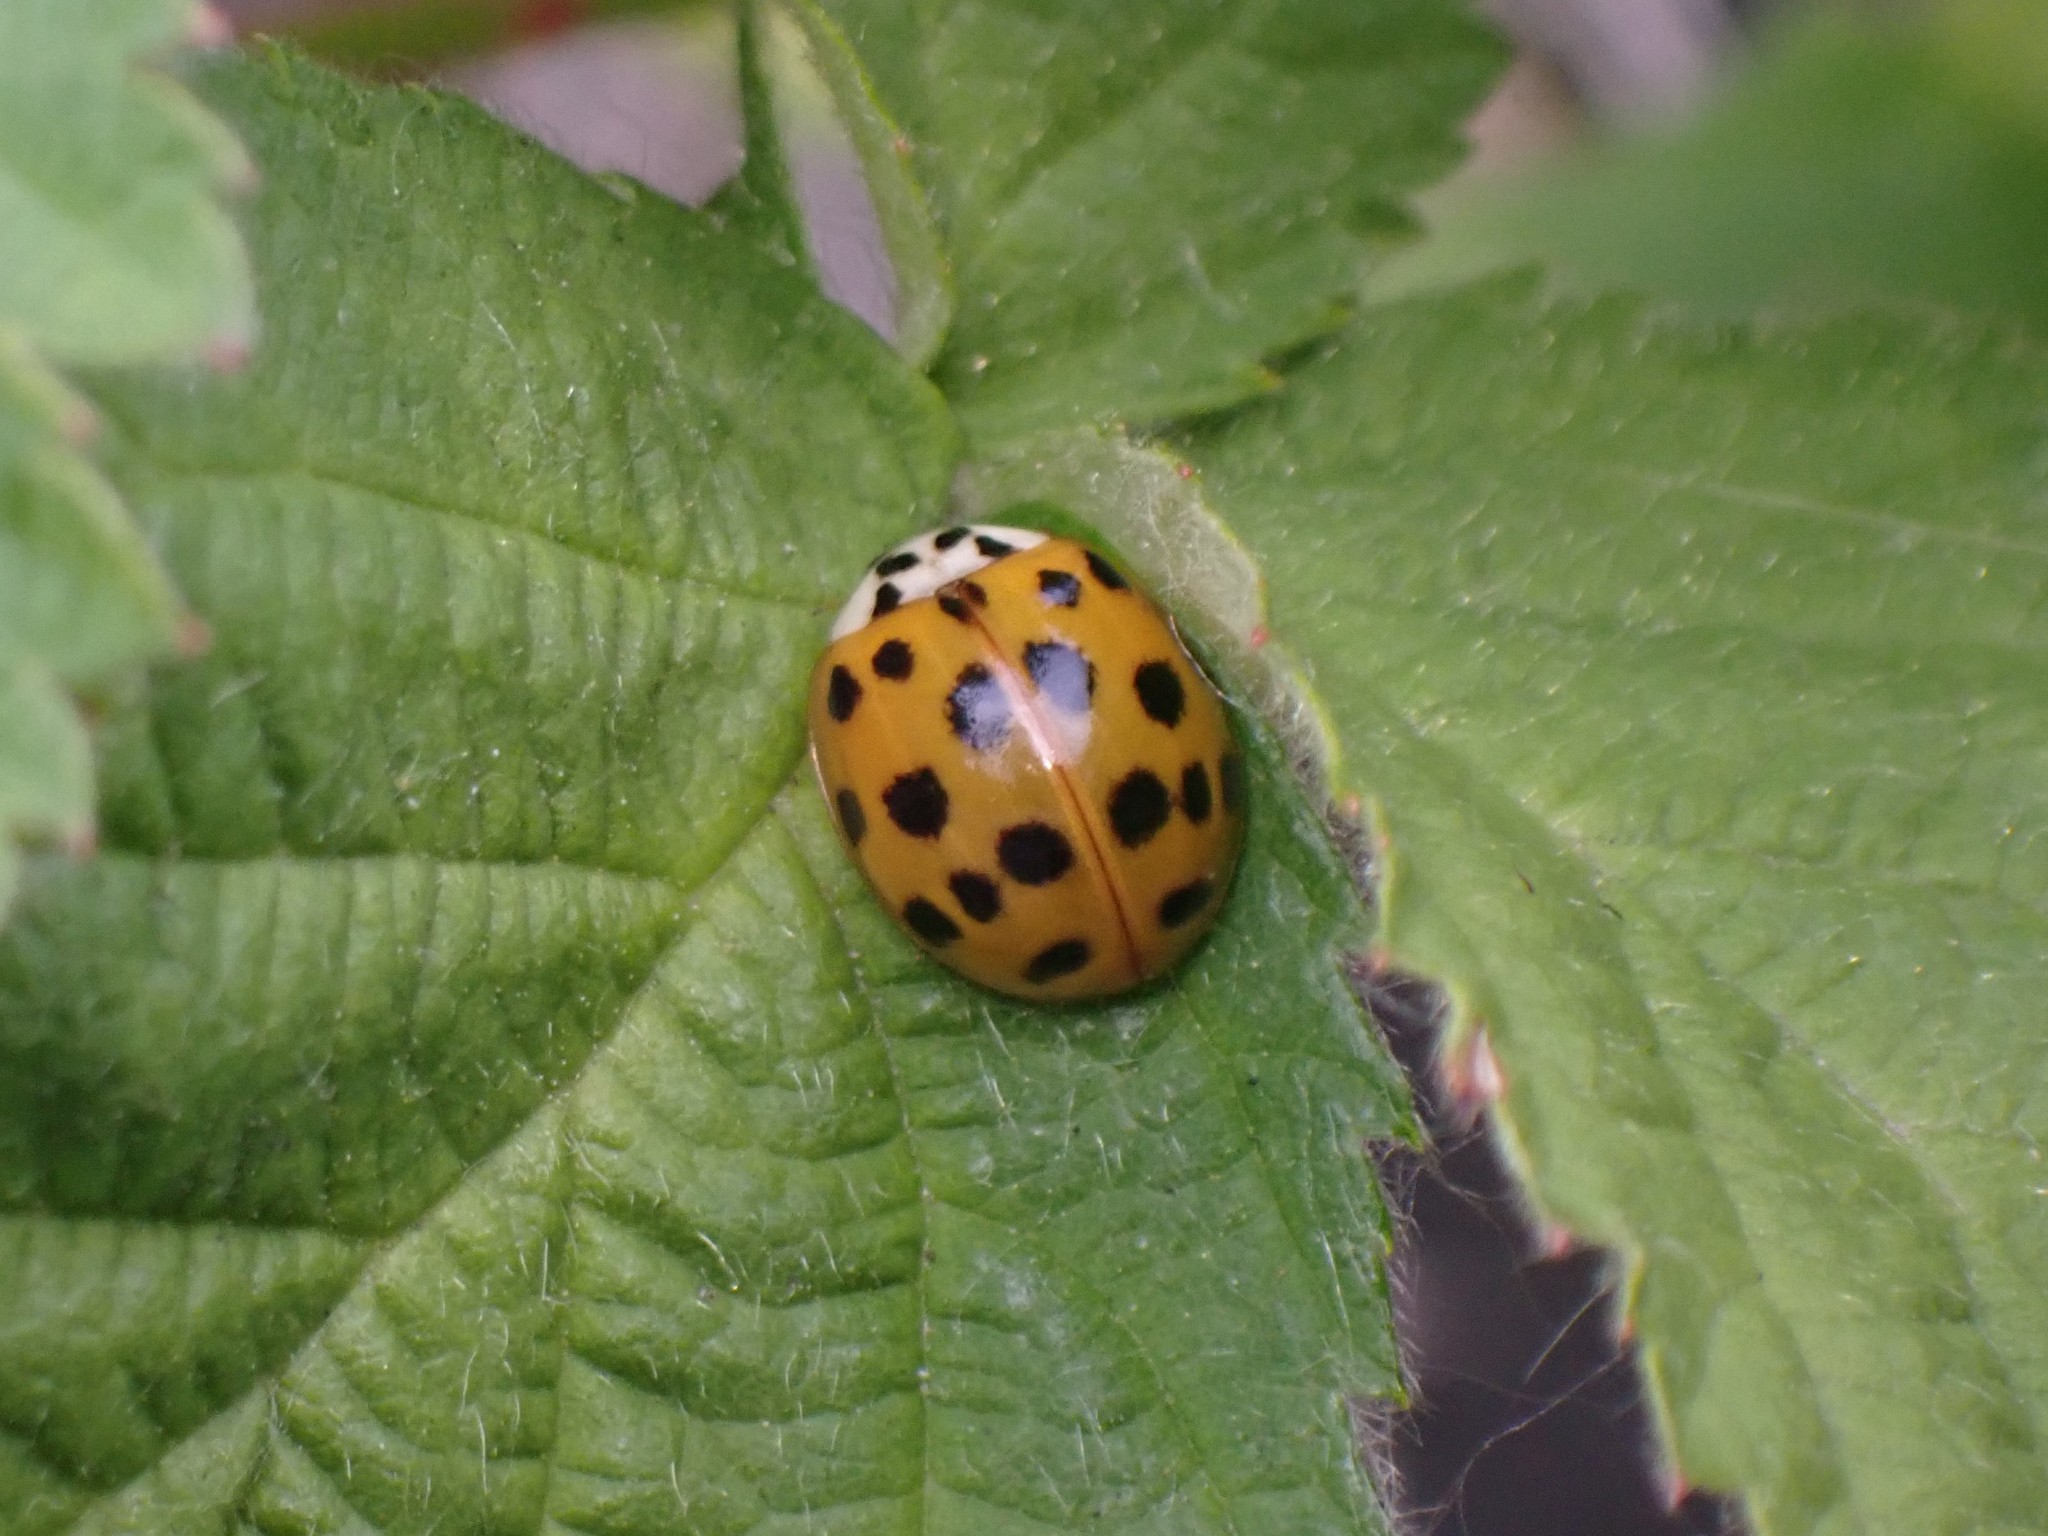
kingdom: Animalia
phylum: Arthropoda
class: Insecta
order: Coleoptera
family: Coccinellidae
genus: Harmonia
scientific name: Harmonia axyridis
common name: Harlequin ladybird
